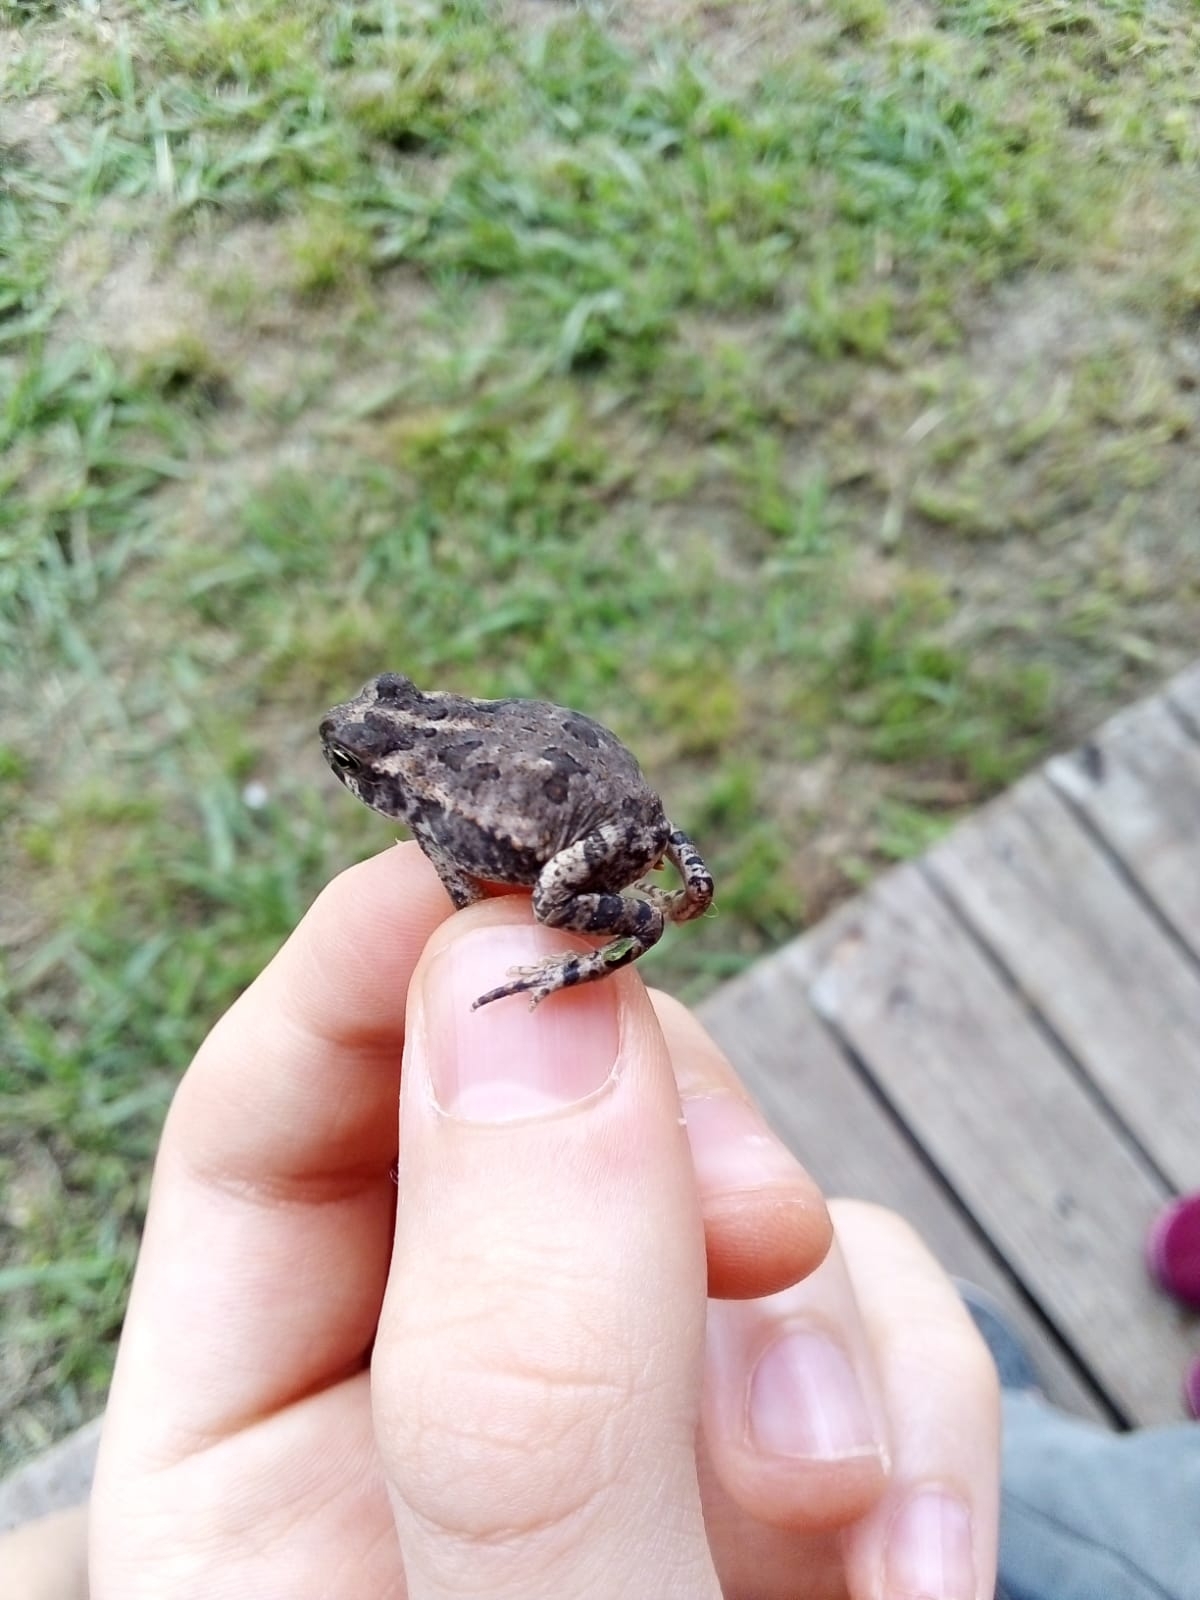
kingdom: Animalia
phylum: Chordata
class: Amphibia
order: Anura
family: Bufonidae
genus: Rhinella
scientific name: Rhinella arenarum
